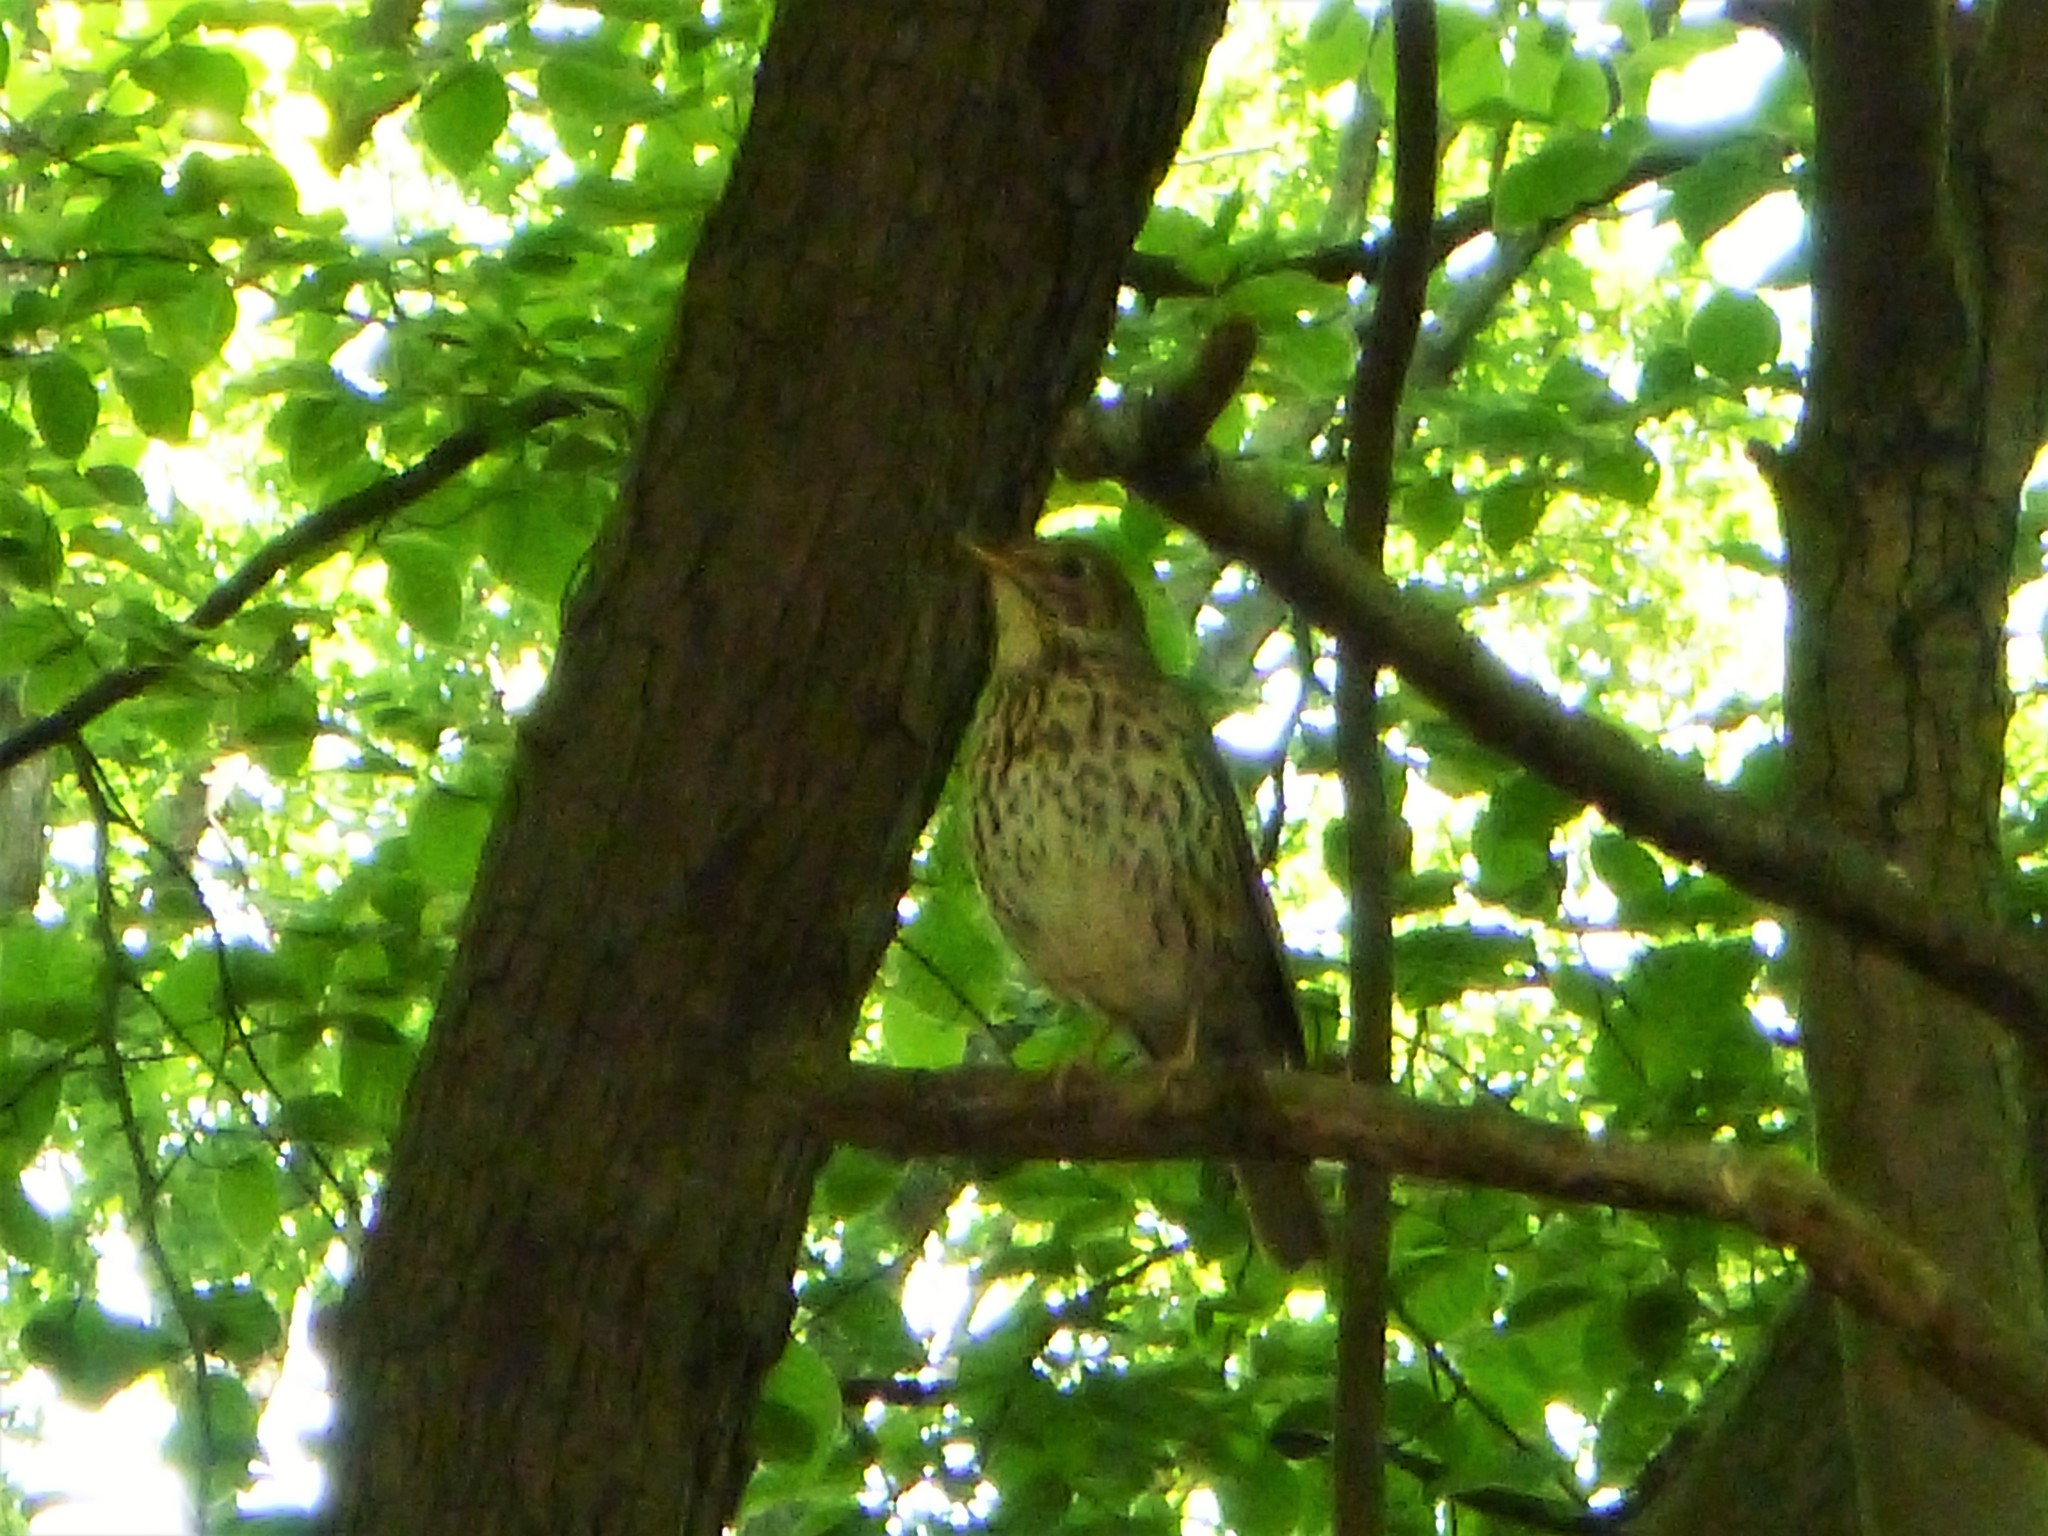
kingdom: Animalia
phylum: Chordata
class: Aves
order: Passeriformes
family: Turdidae
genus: Turdus
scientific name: Turdus philomelos
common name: Song thrush
